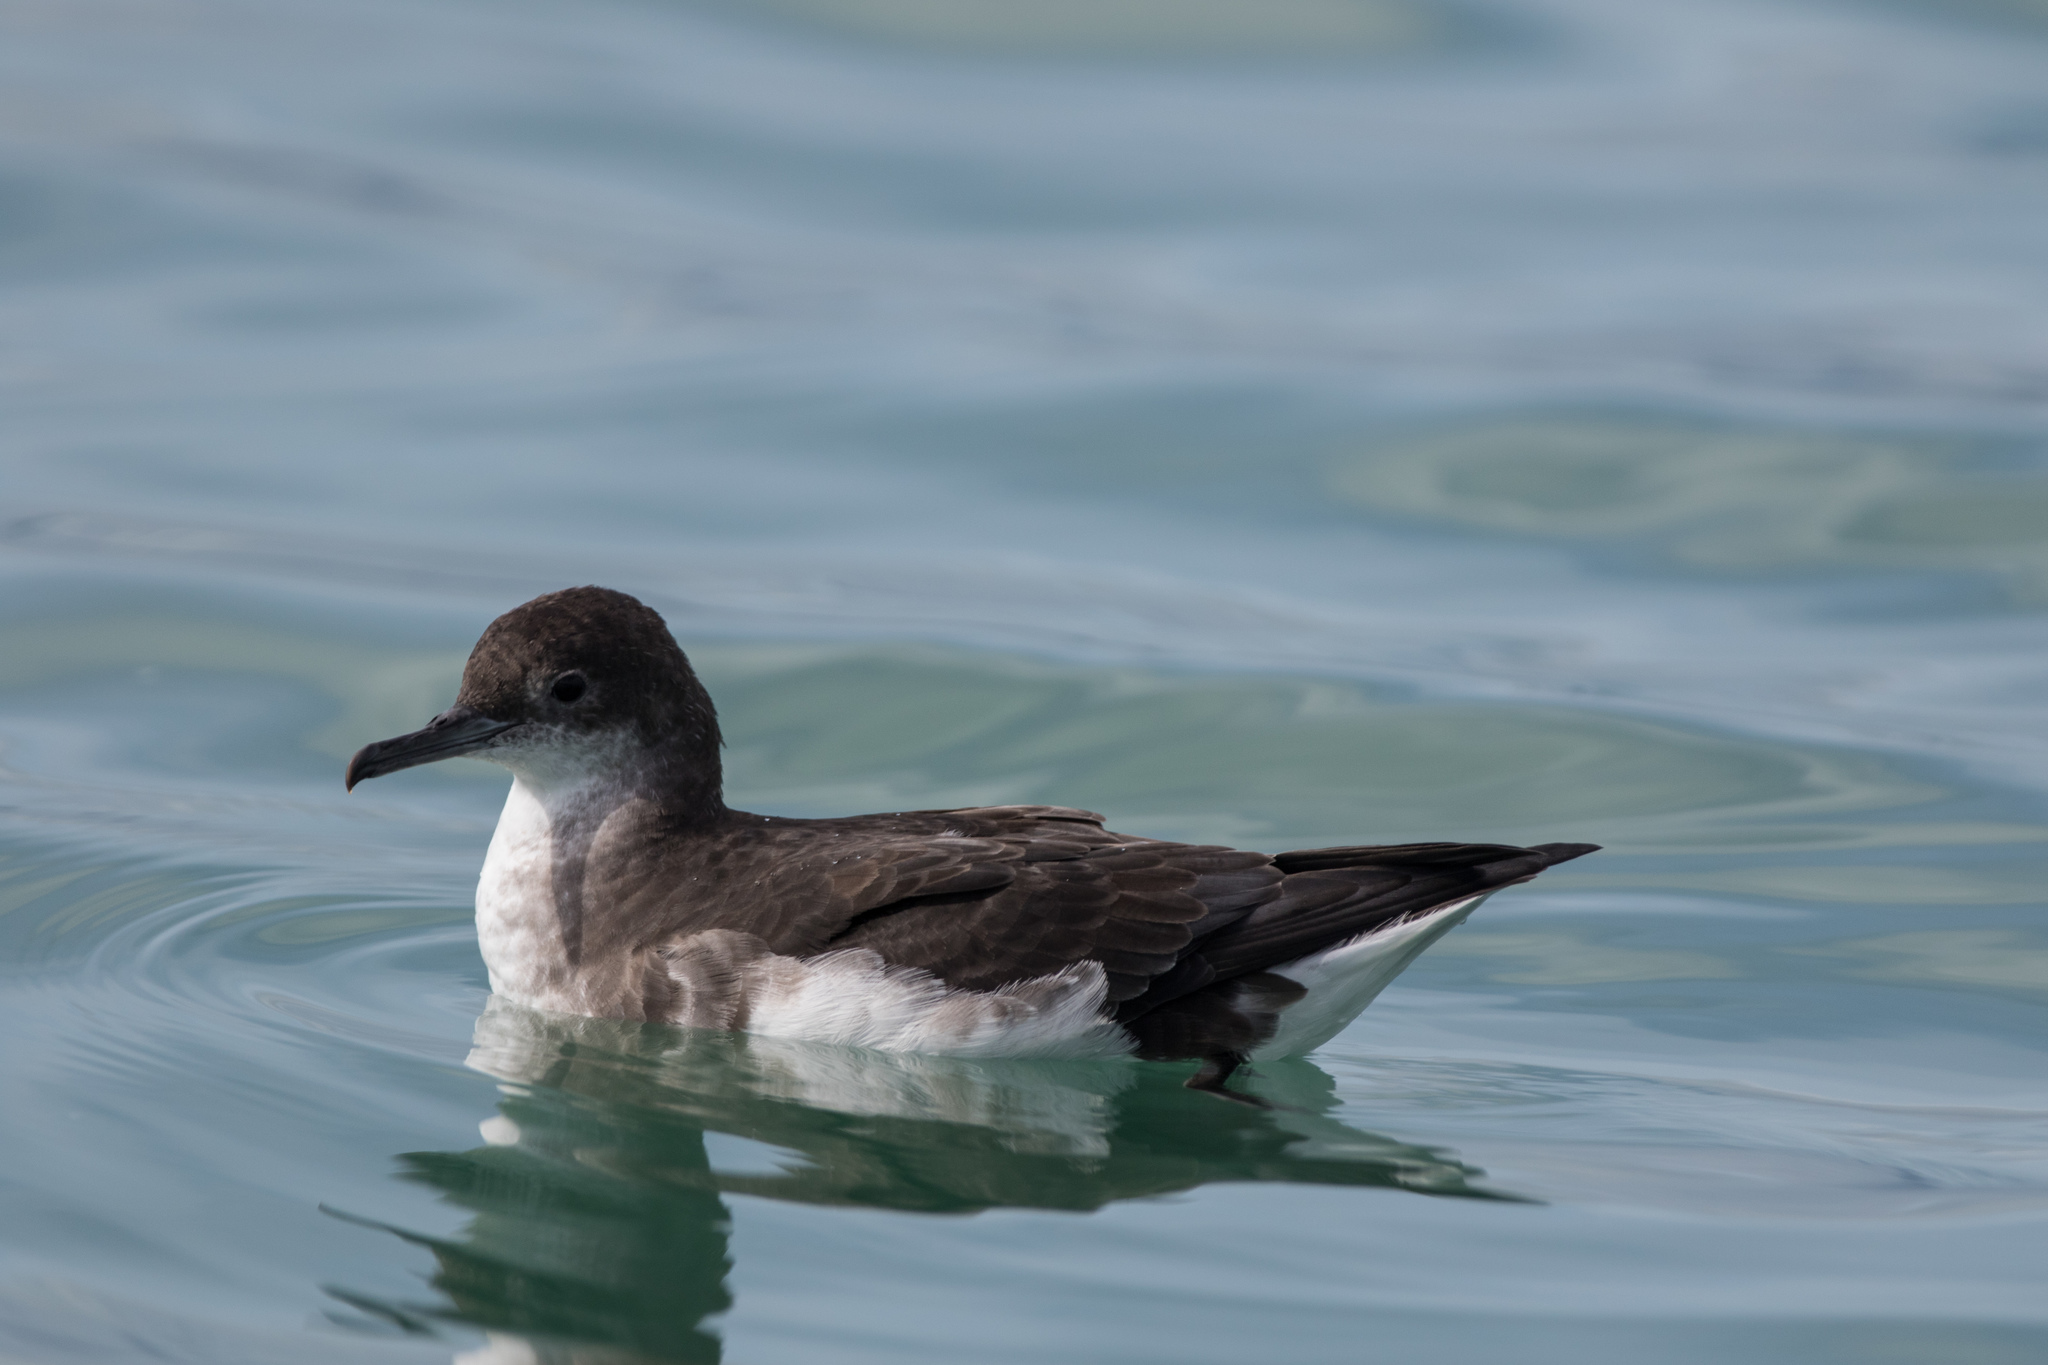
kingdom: Animalia
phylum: Chordata
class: Aves
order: Procellariiformes
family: Procellariidae
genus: Puffinus
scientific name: Puffinus gavia
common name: Fluttering shearwater
